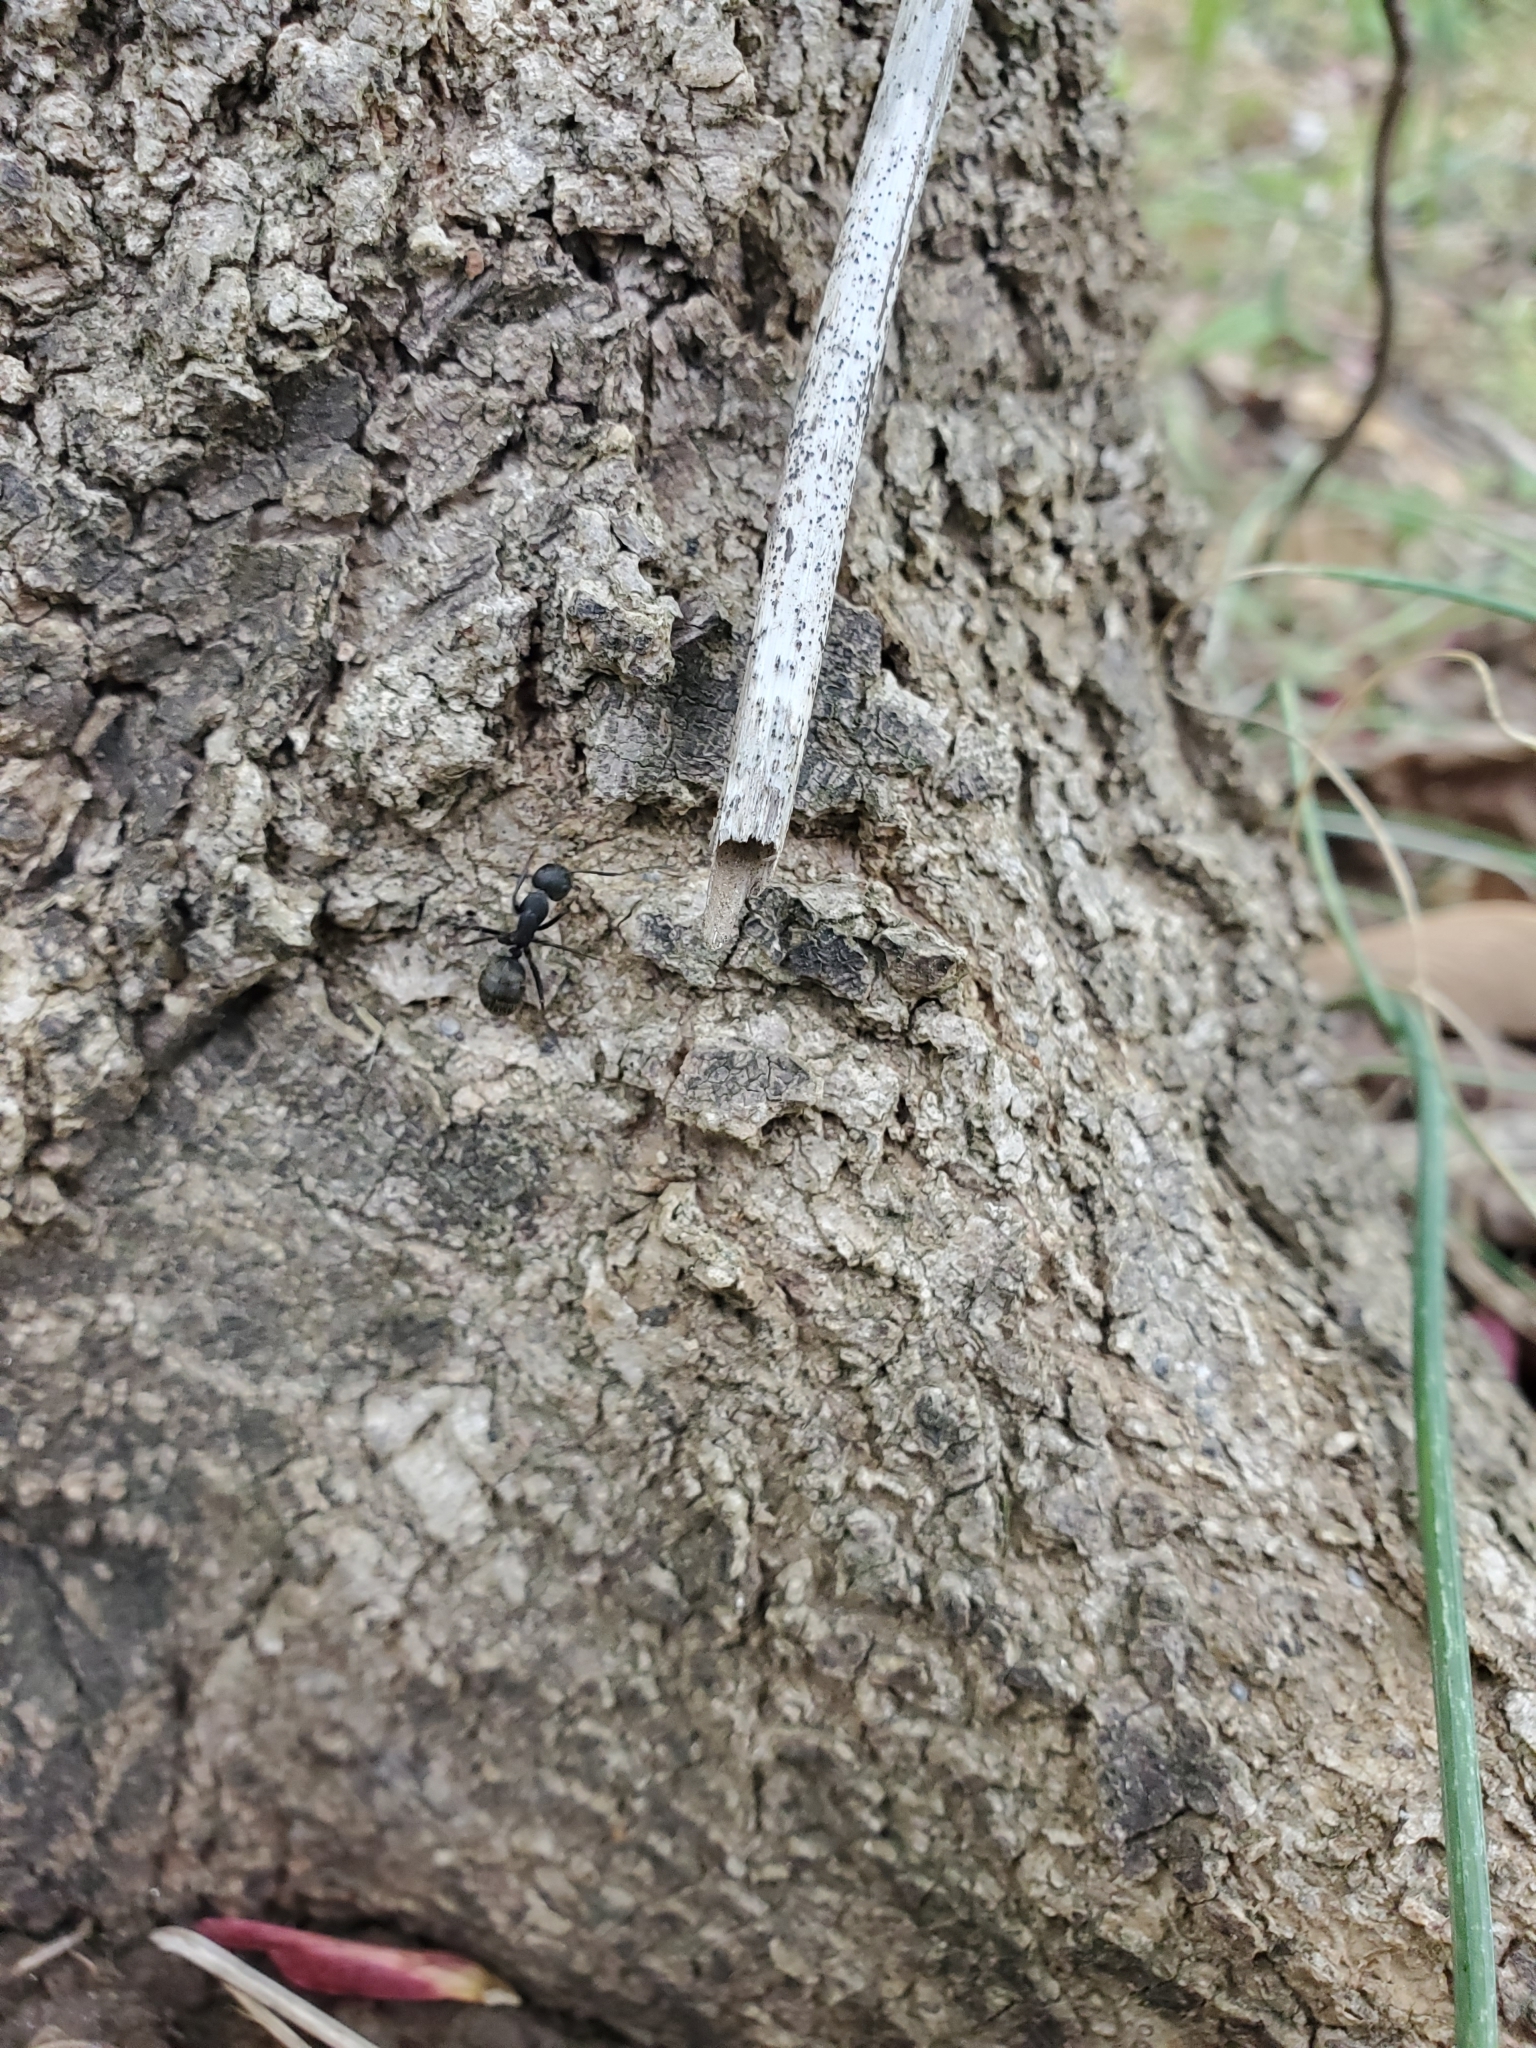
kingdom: Animalia
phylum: Arthropoda
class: Insecta
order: Hymenoptera
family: Formicidae
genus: Camponotus
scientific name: Camponotus pennsylvanicus
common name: Black carpenter ant
